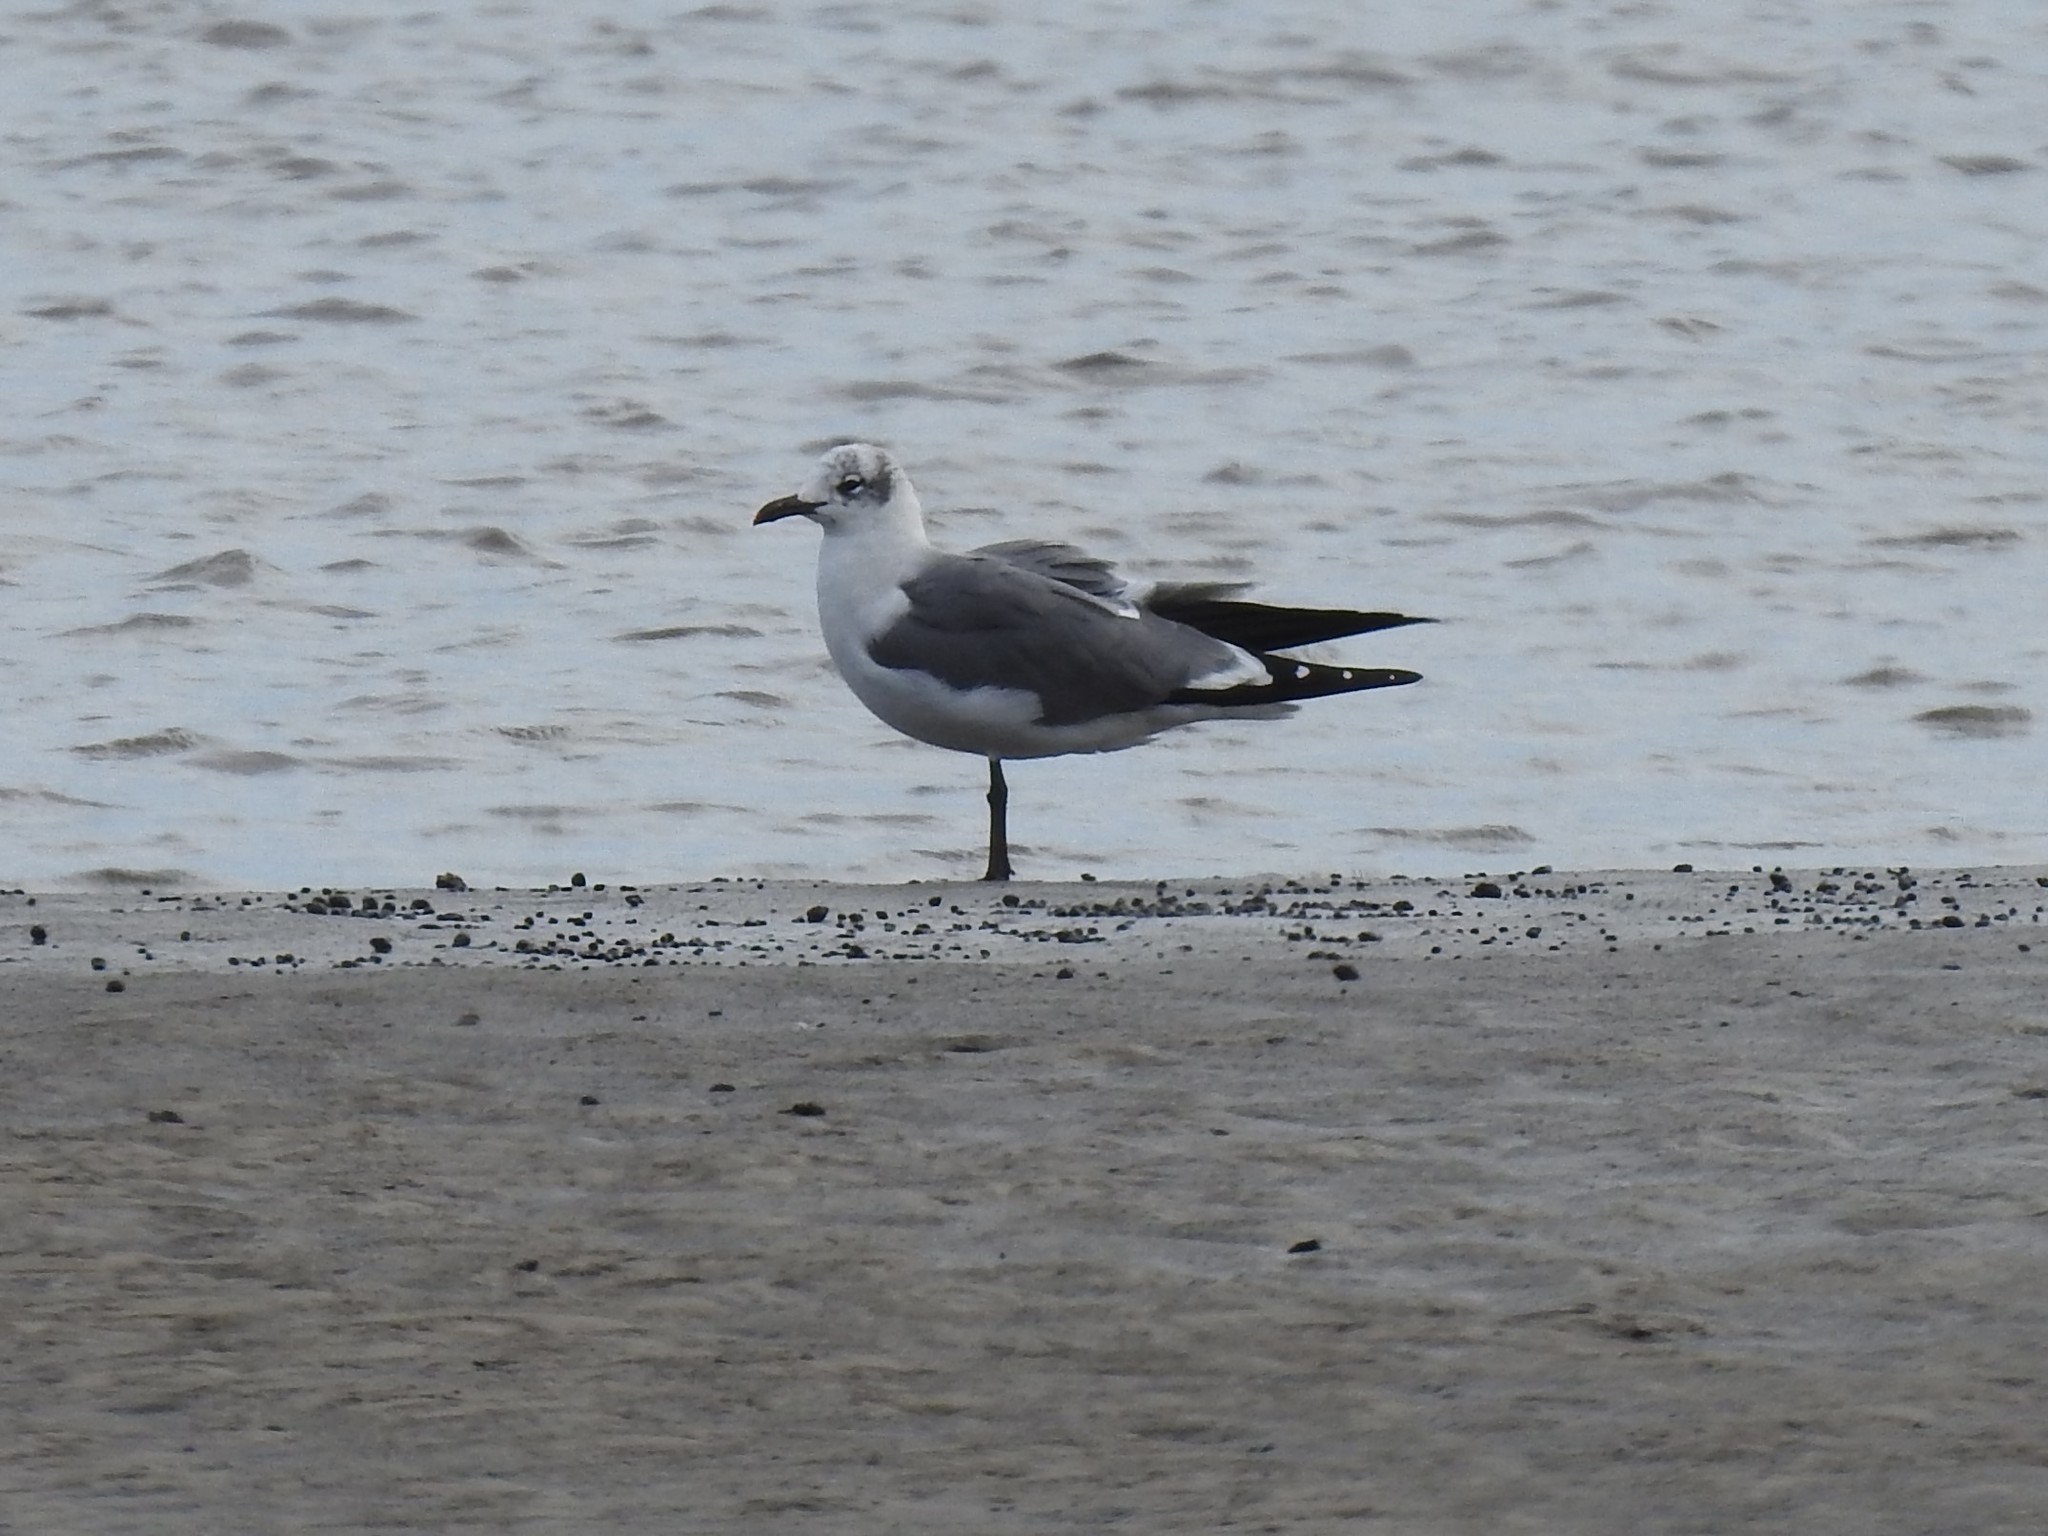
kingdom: Animalia
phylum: Chordata
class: Aves
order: Charadriiformes
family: Laridae
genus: Leucophaeus
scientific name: Leucophaeus atricilla
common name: Laughing gull
